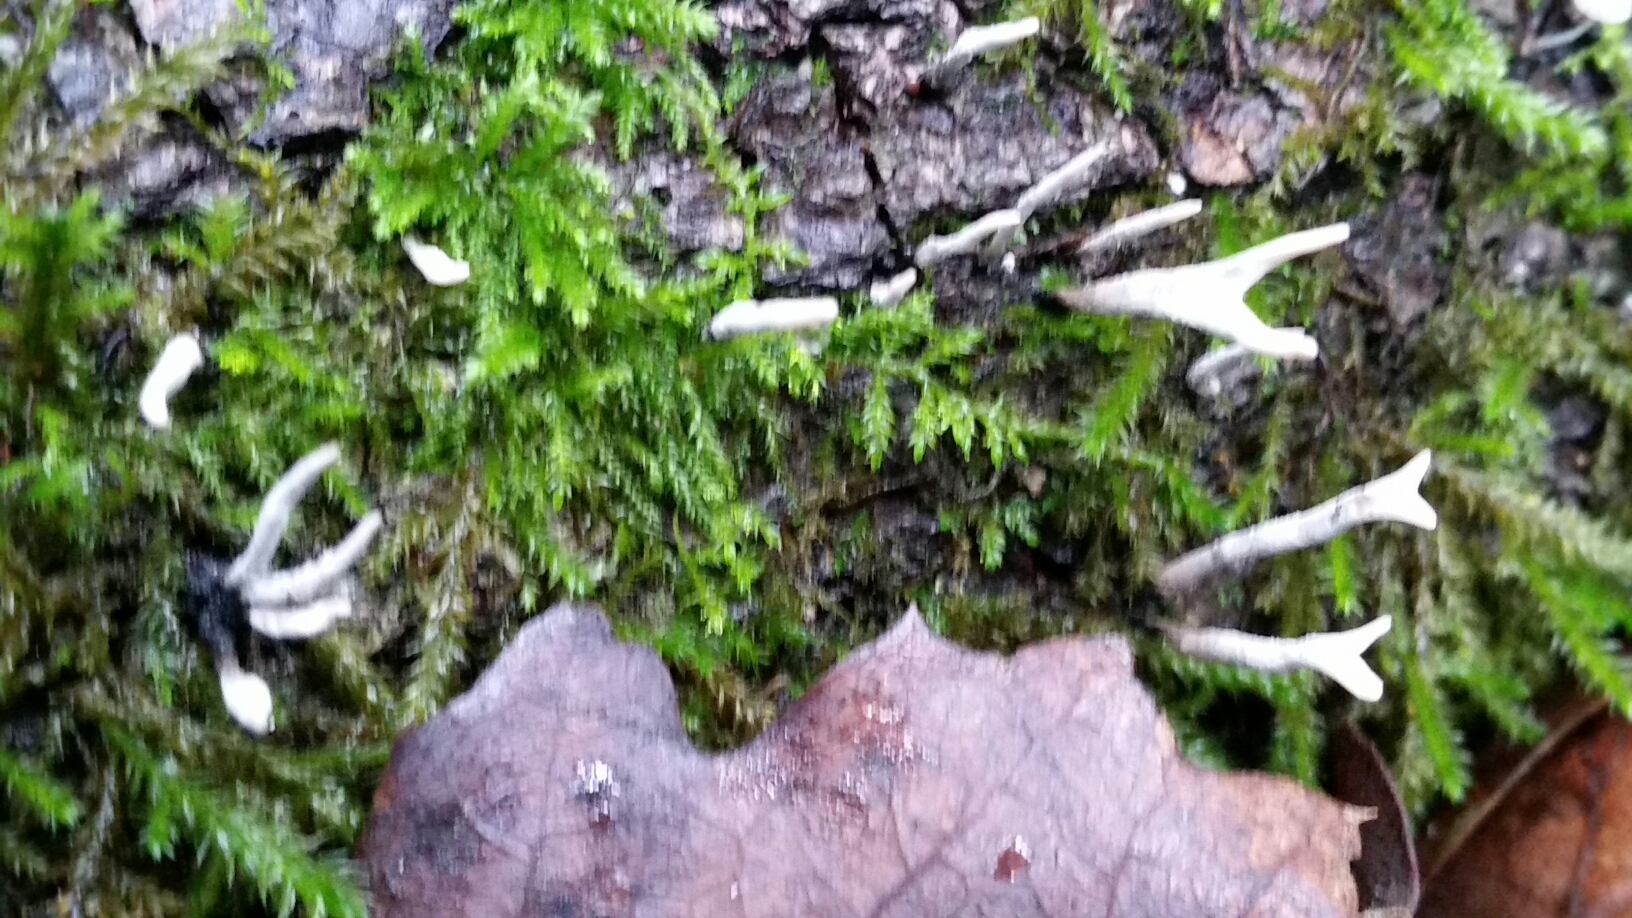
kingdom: Fungi
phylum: Ascomycota
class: Sordariomycetes
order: Xylariales
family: Xylariaceae
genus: Xylaria
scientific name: Xylaria hypoxylon
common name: Candle-snuff fungus
